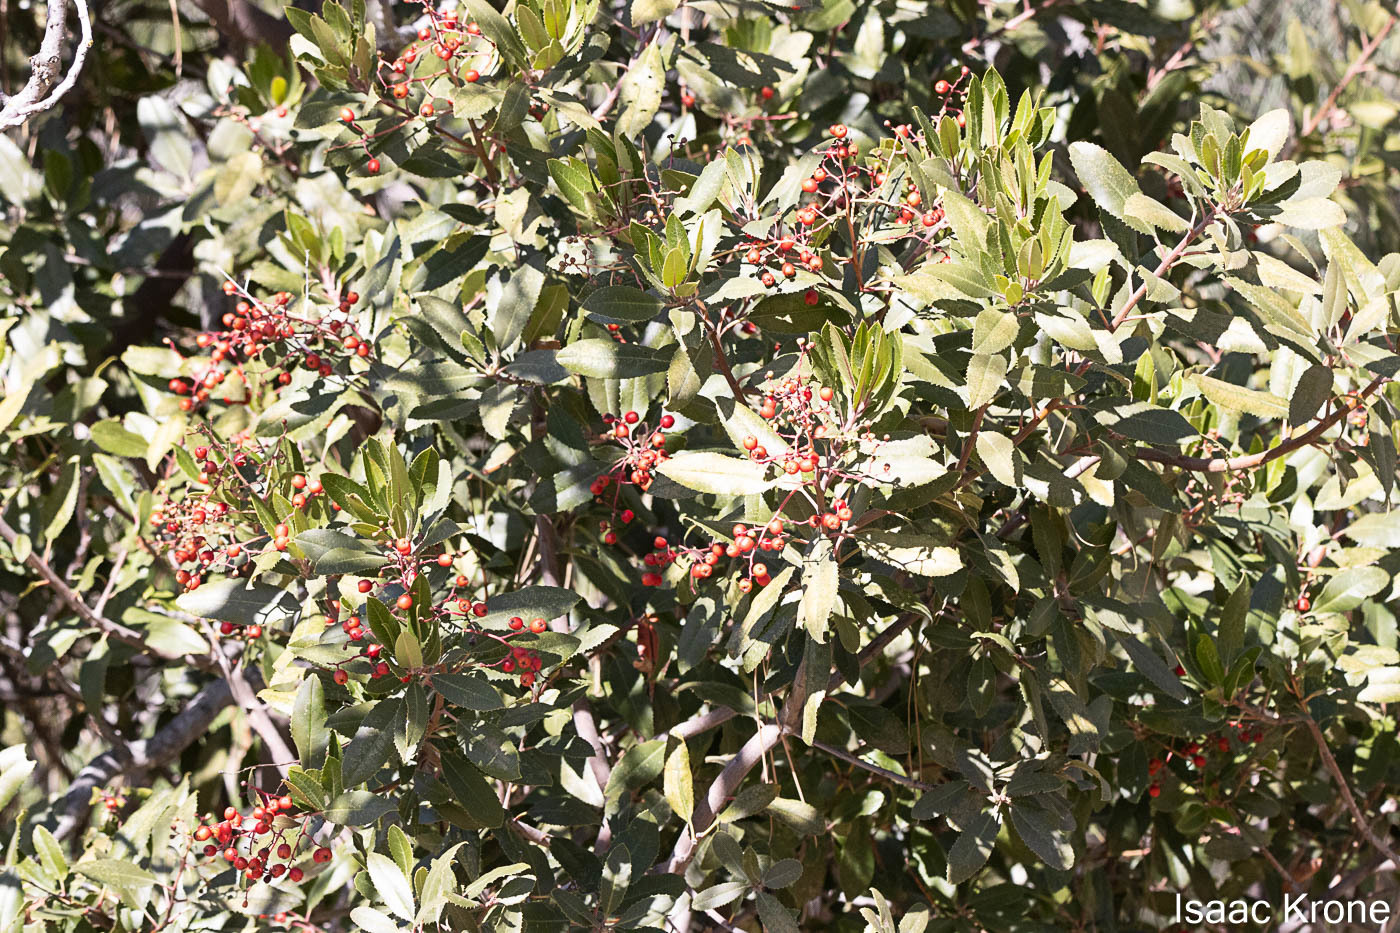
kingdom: Plantae
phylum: Tracheophyta
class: Magnoliopsida
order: Rosales
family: Rosaceae
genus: Heteromeles
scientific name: Heteromeles arbutifolia
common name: California-holly
